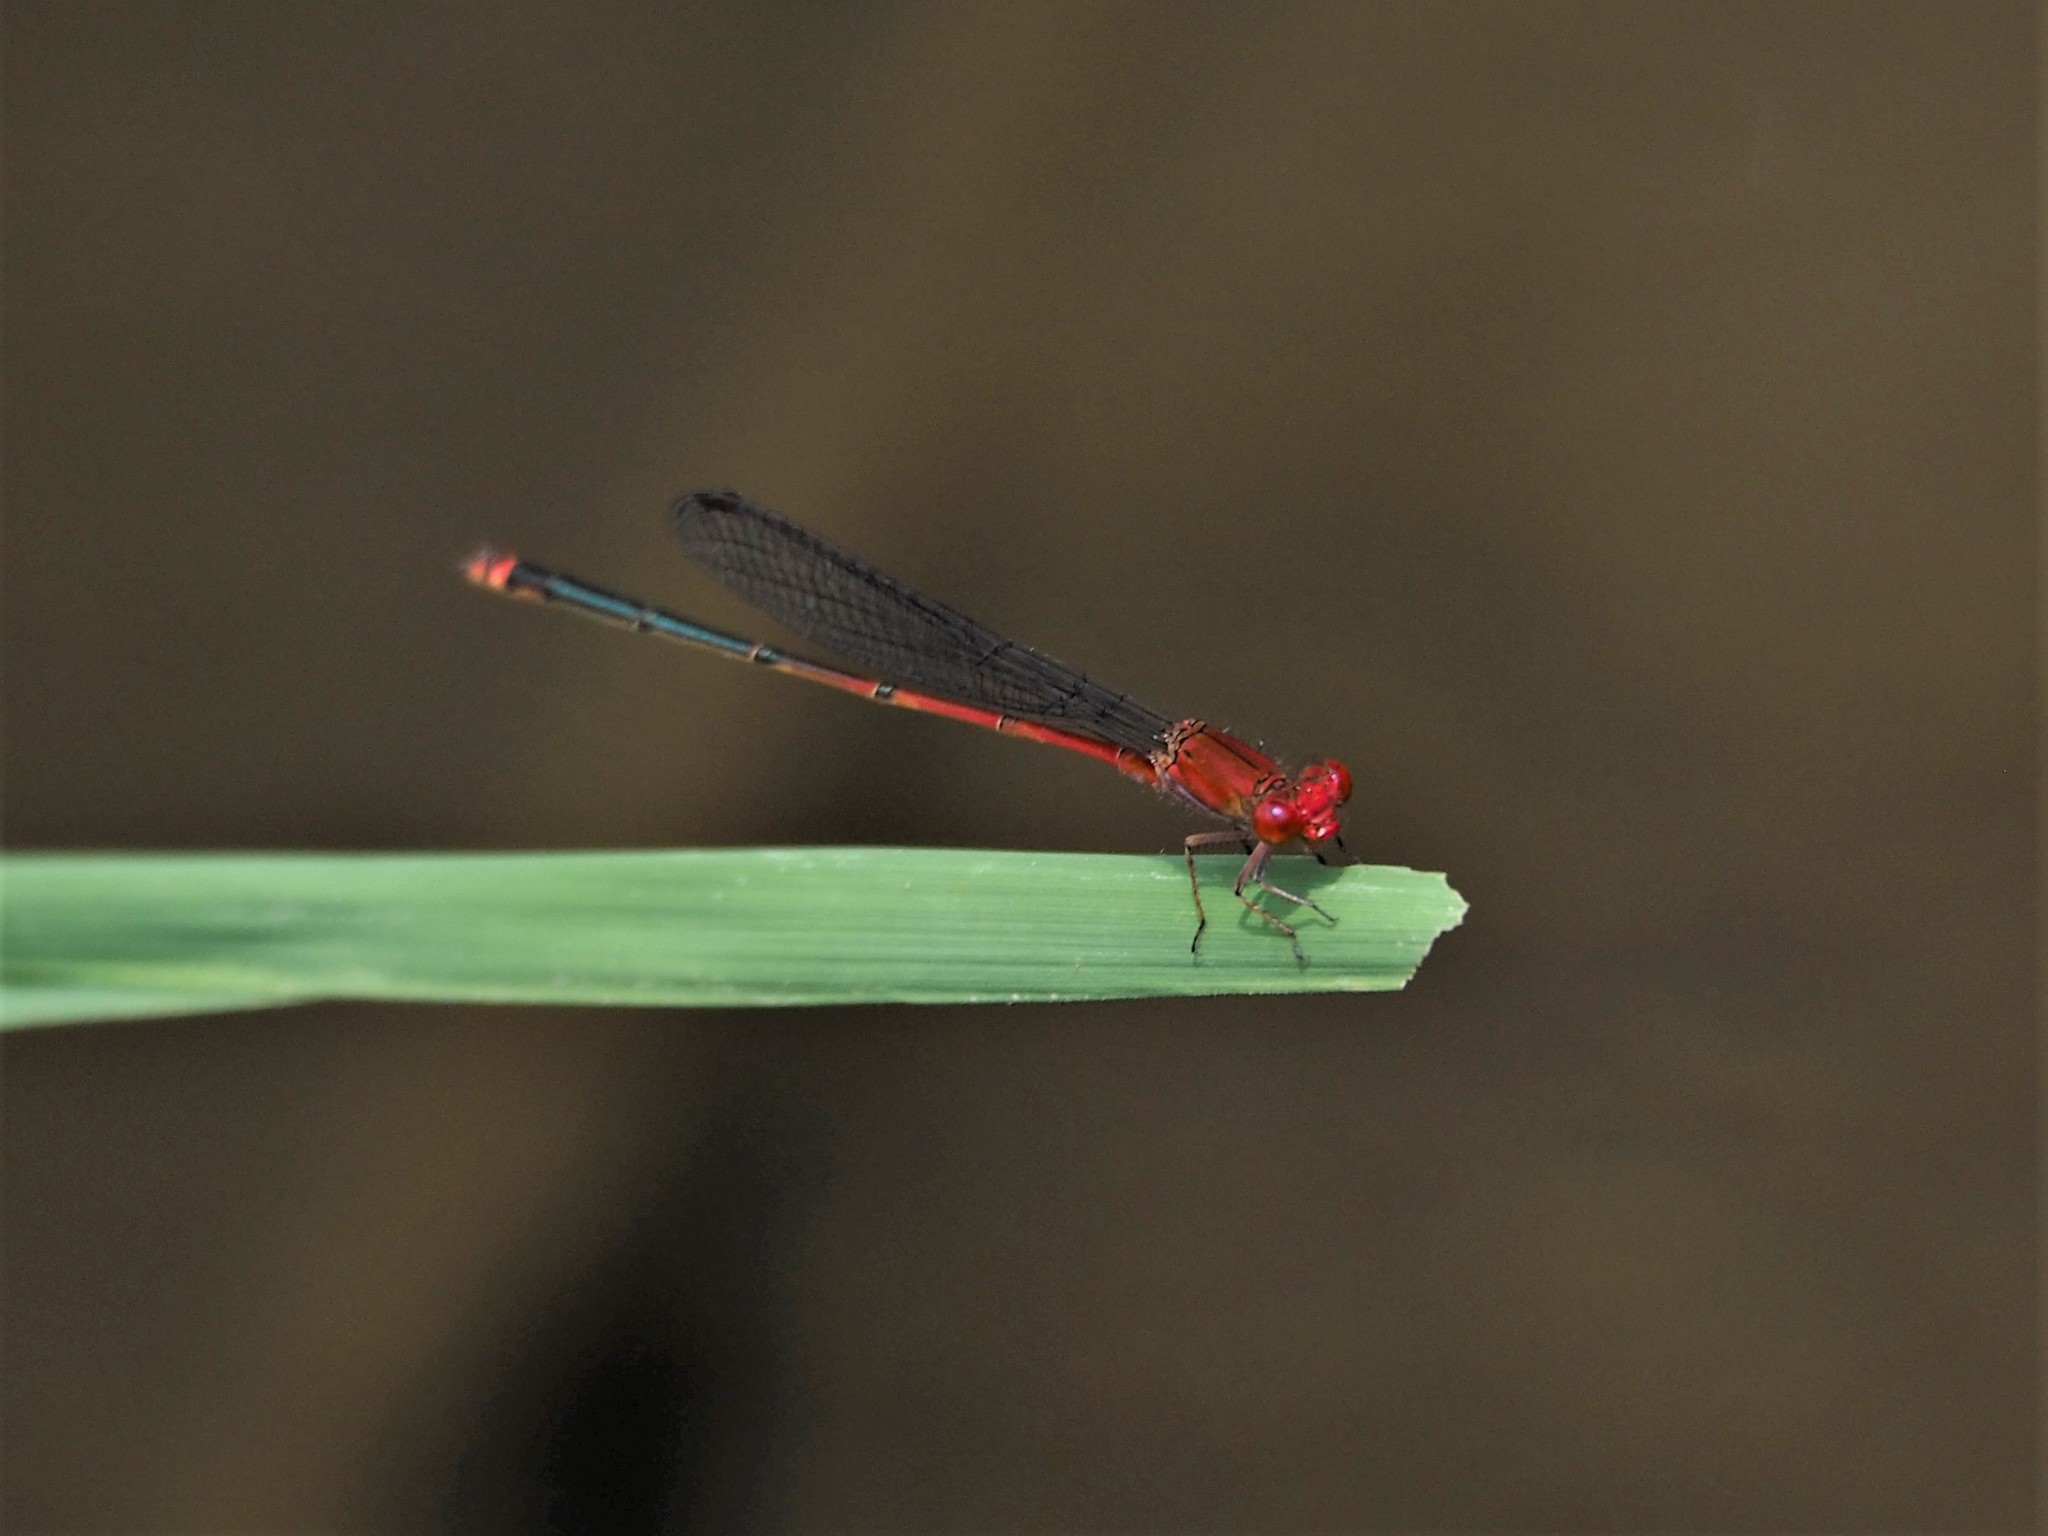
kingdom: Animalia
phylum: Arthropoda
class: Insecta
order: Odonata
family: Coenagrionidae
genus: Pseudagrion
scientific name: Pseudagrion pilidorsum
